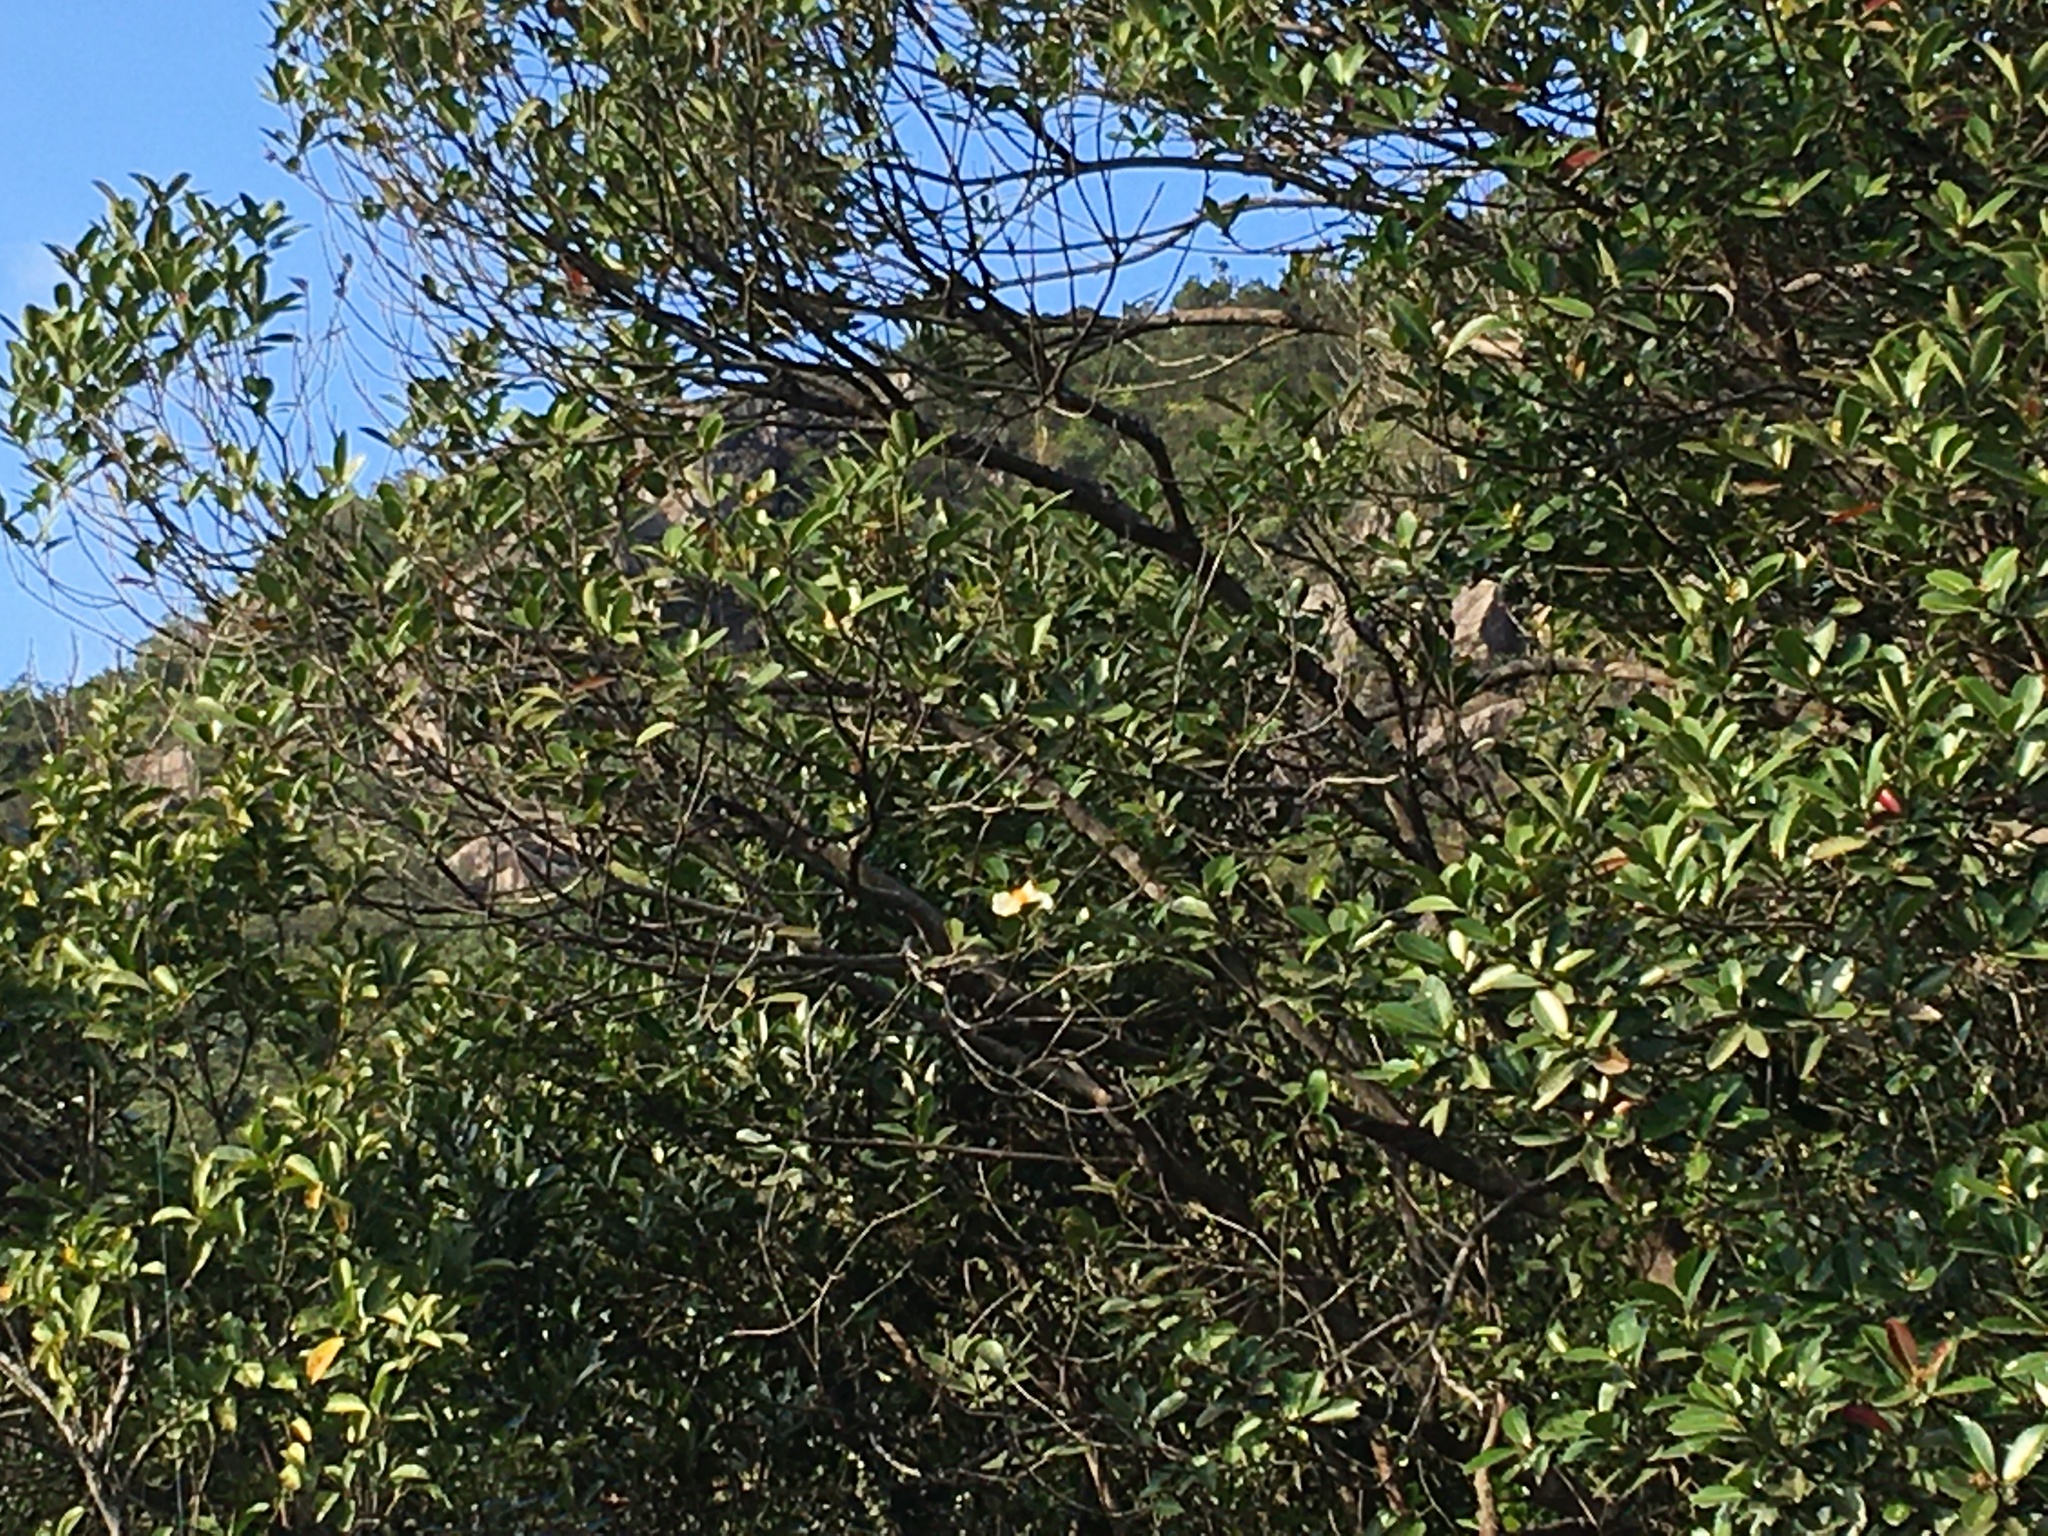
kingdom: Plantae
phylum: Tracheophyta
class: Magnoliopsida
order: Ericales
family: Theaceae
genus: Polyspora
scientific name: Polyspora axillaris
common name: Fried egg tree
